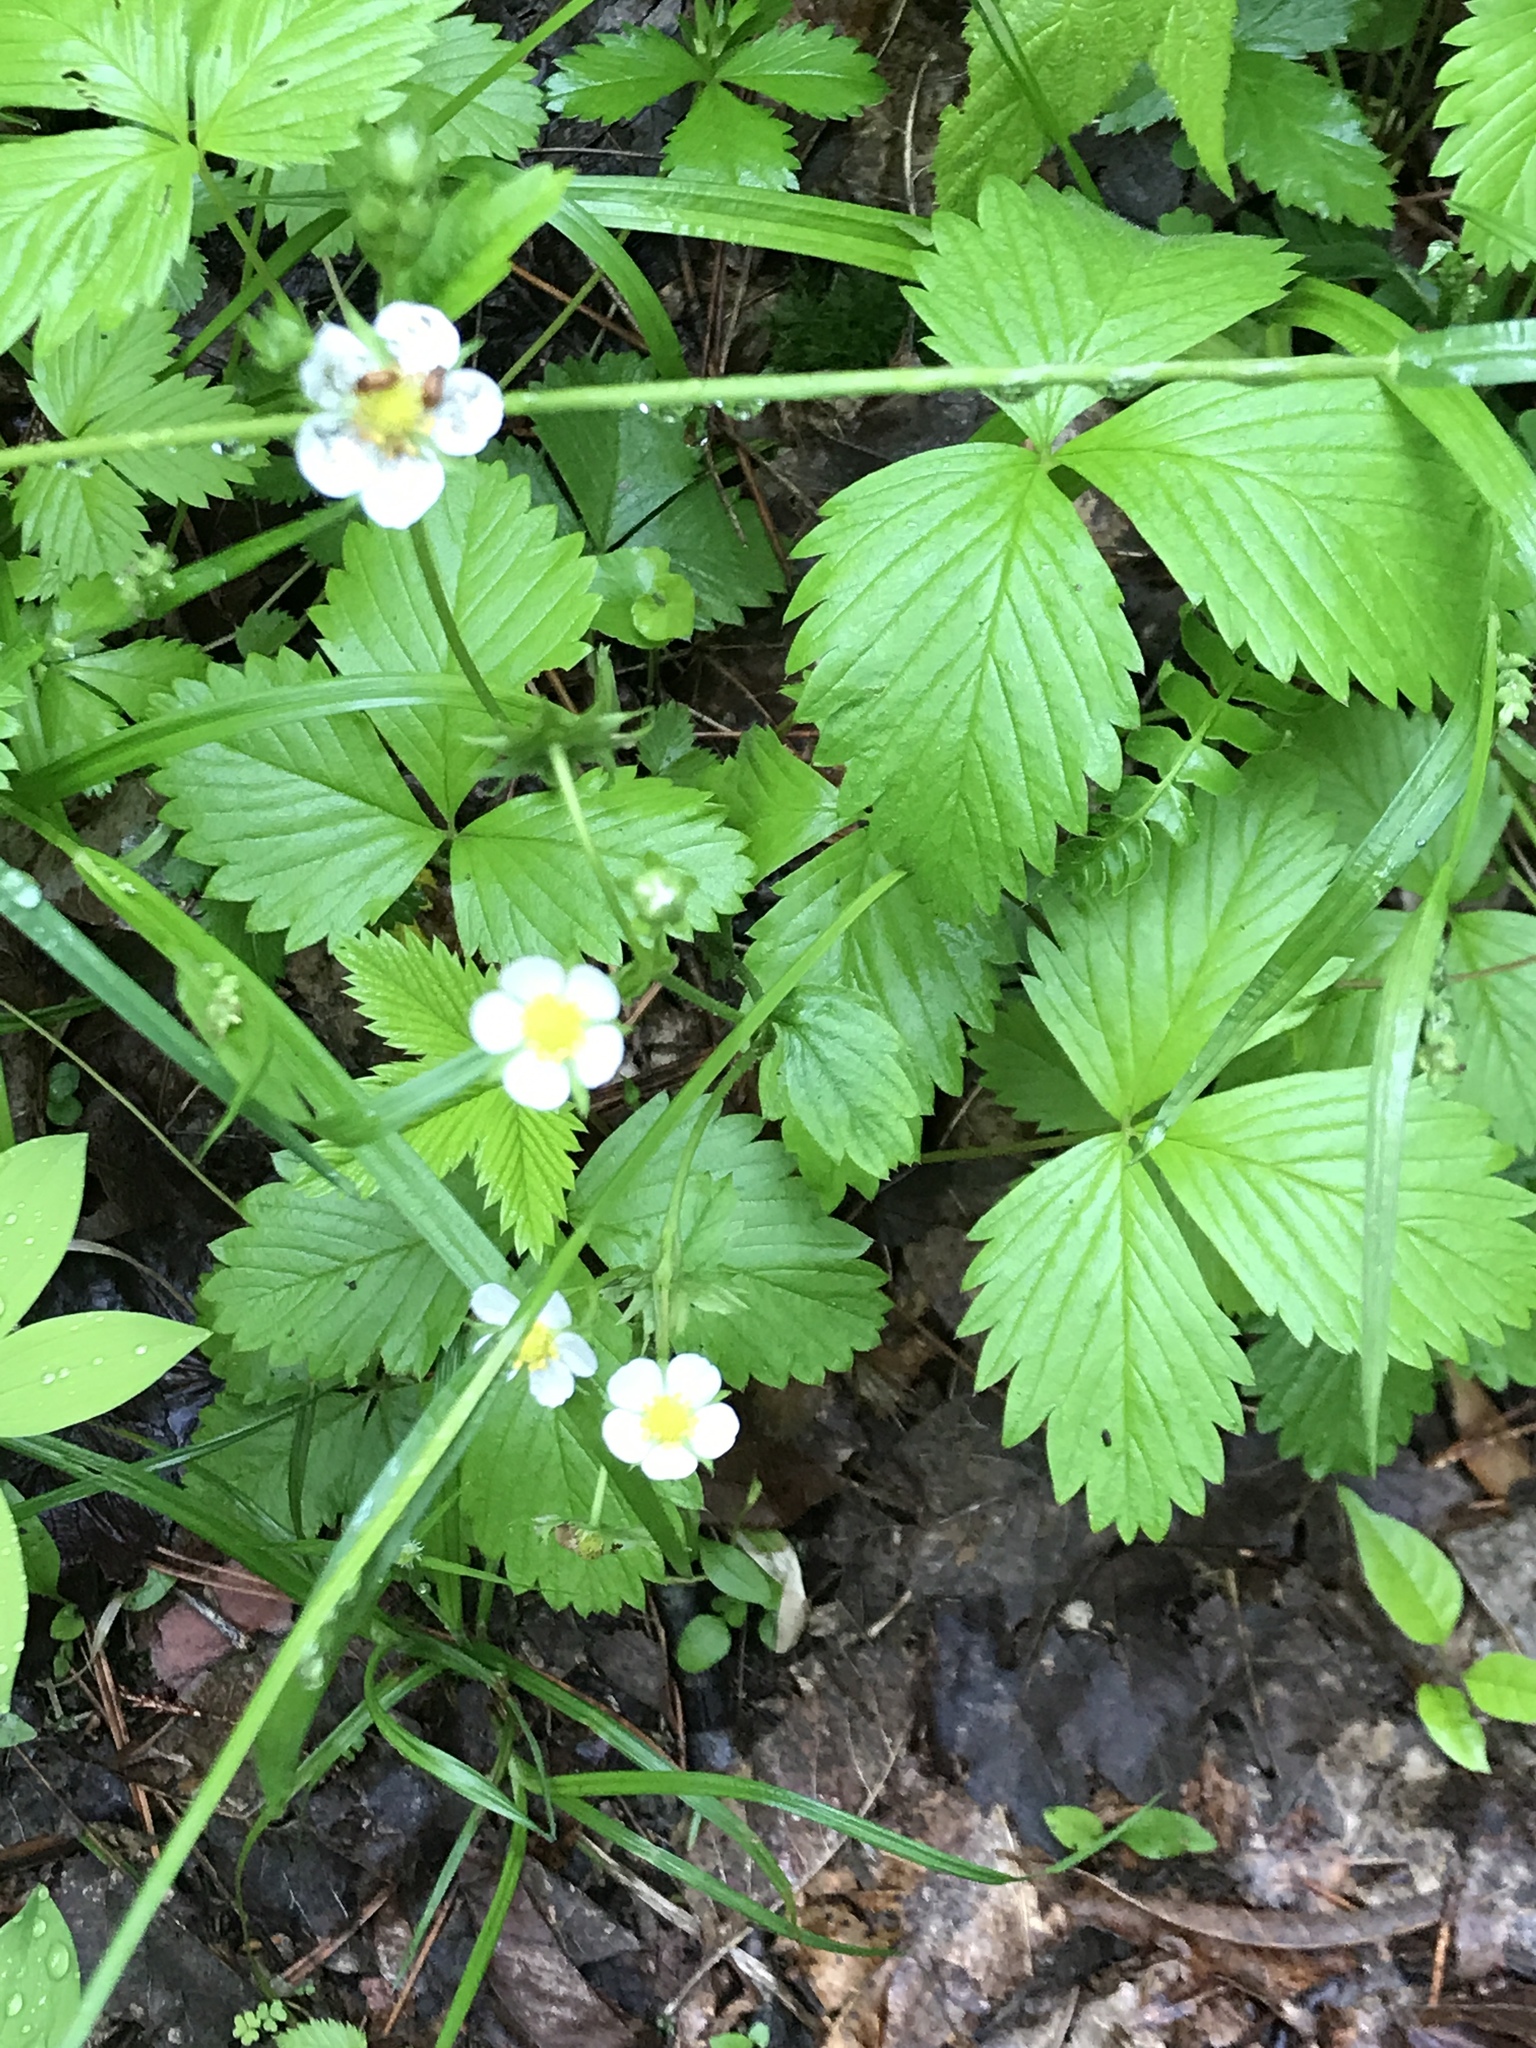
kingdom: Plantae
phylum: Tracheophyta
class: Magnoliopsida
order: Rosales
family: Rosaceae
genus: Fragaria
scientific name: Fragaria vesca
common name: Wild strawberry
